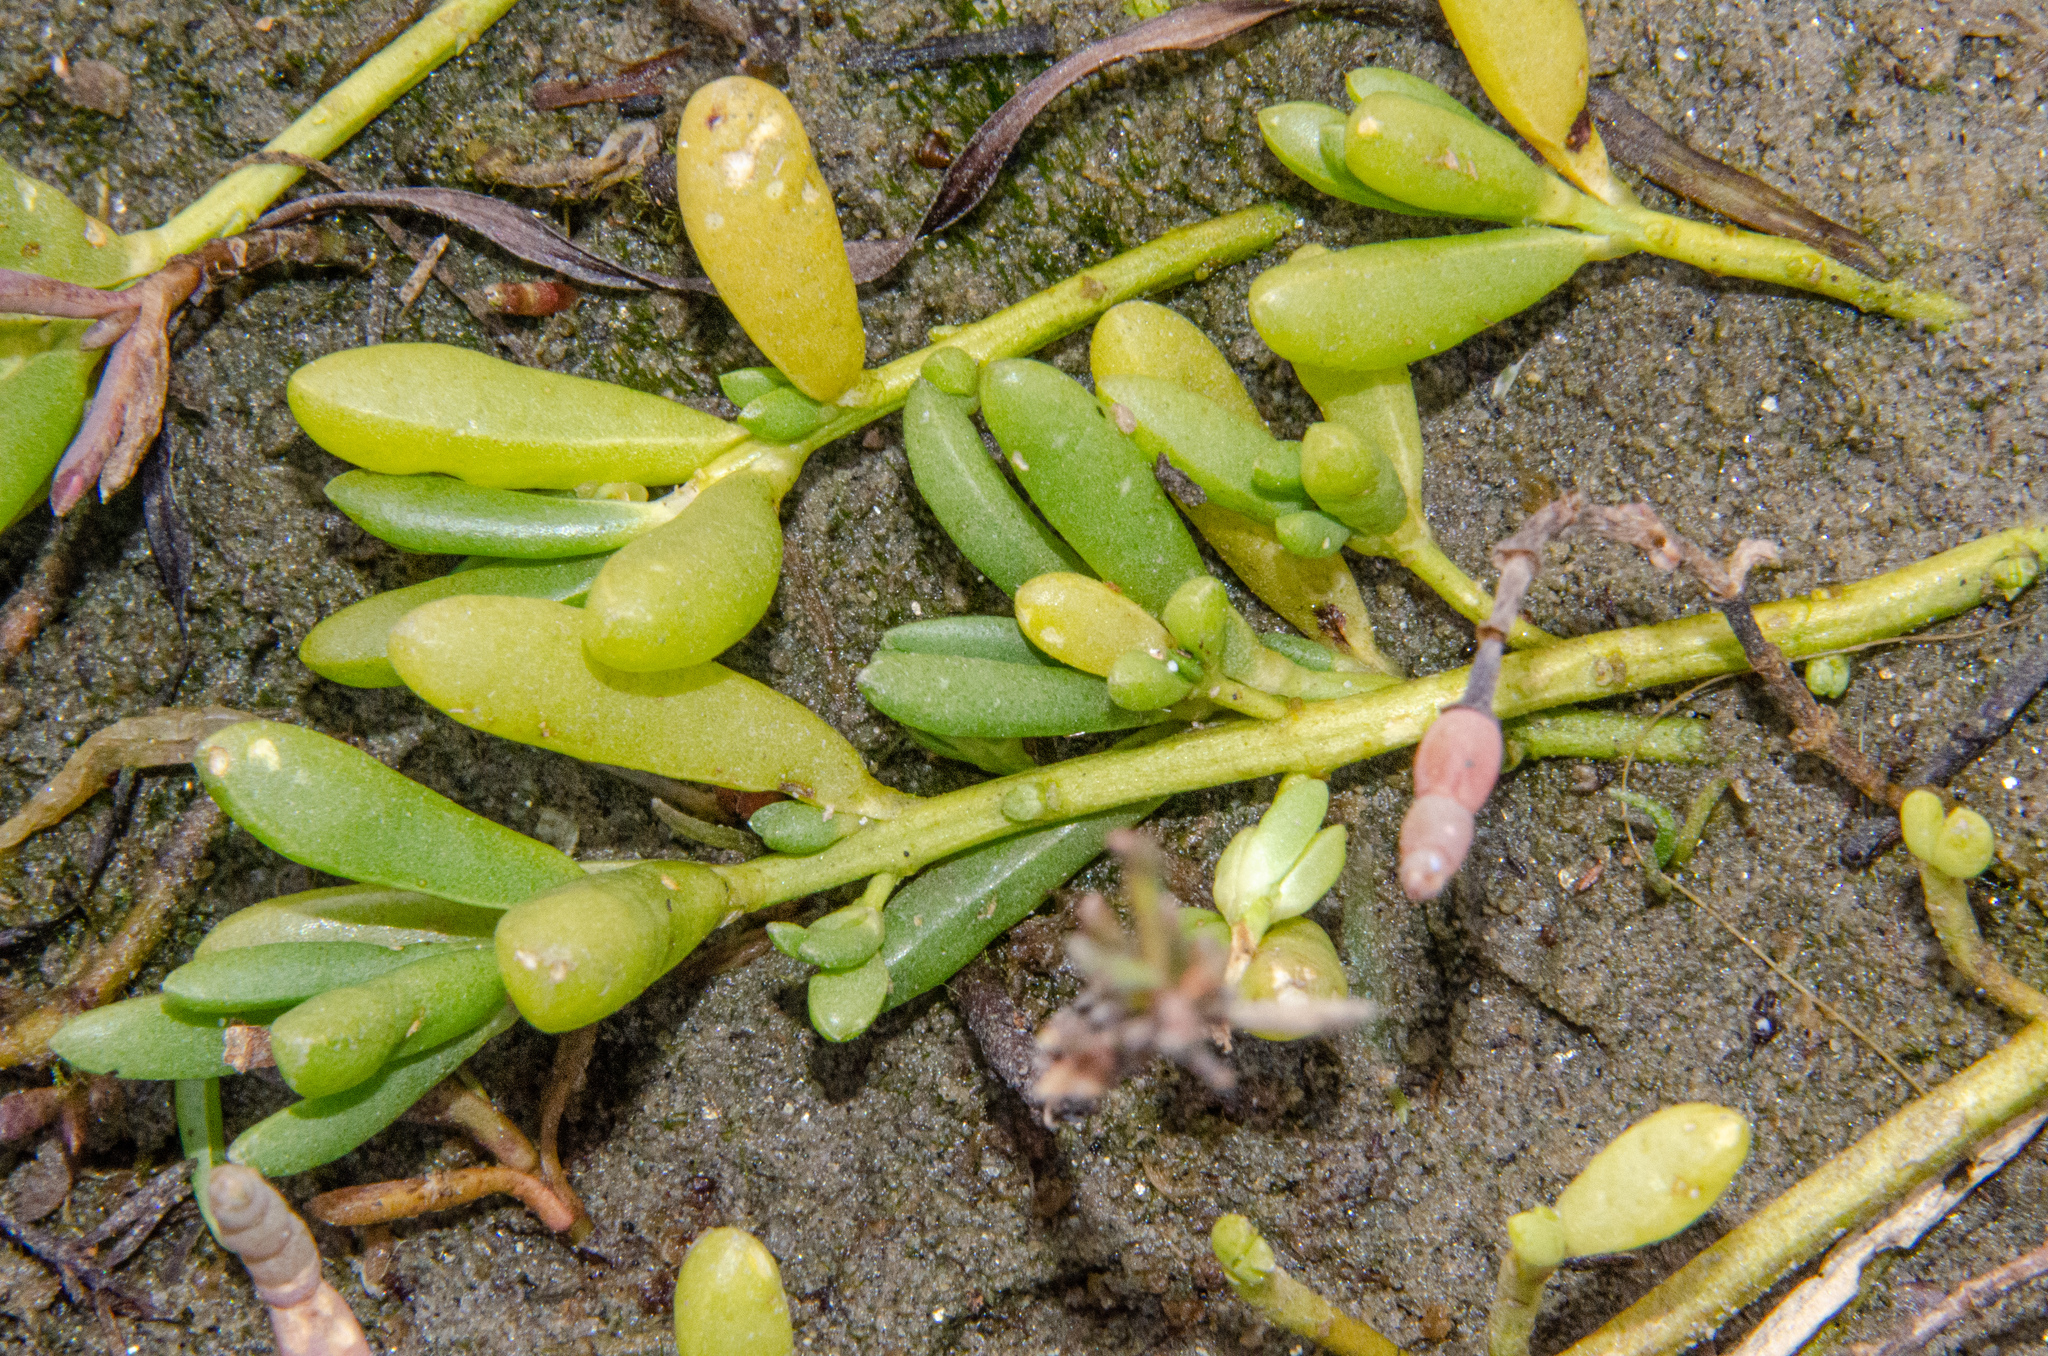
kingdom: Plantae
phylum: Tracheophyta
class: Magnoliopsida
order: Brassicales
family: Bataceae
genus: Batis
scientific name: Batis maritima
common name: Turtleweed
